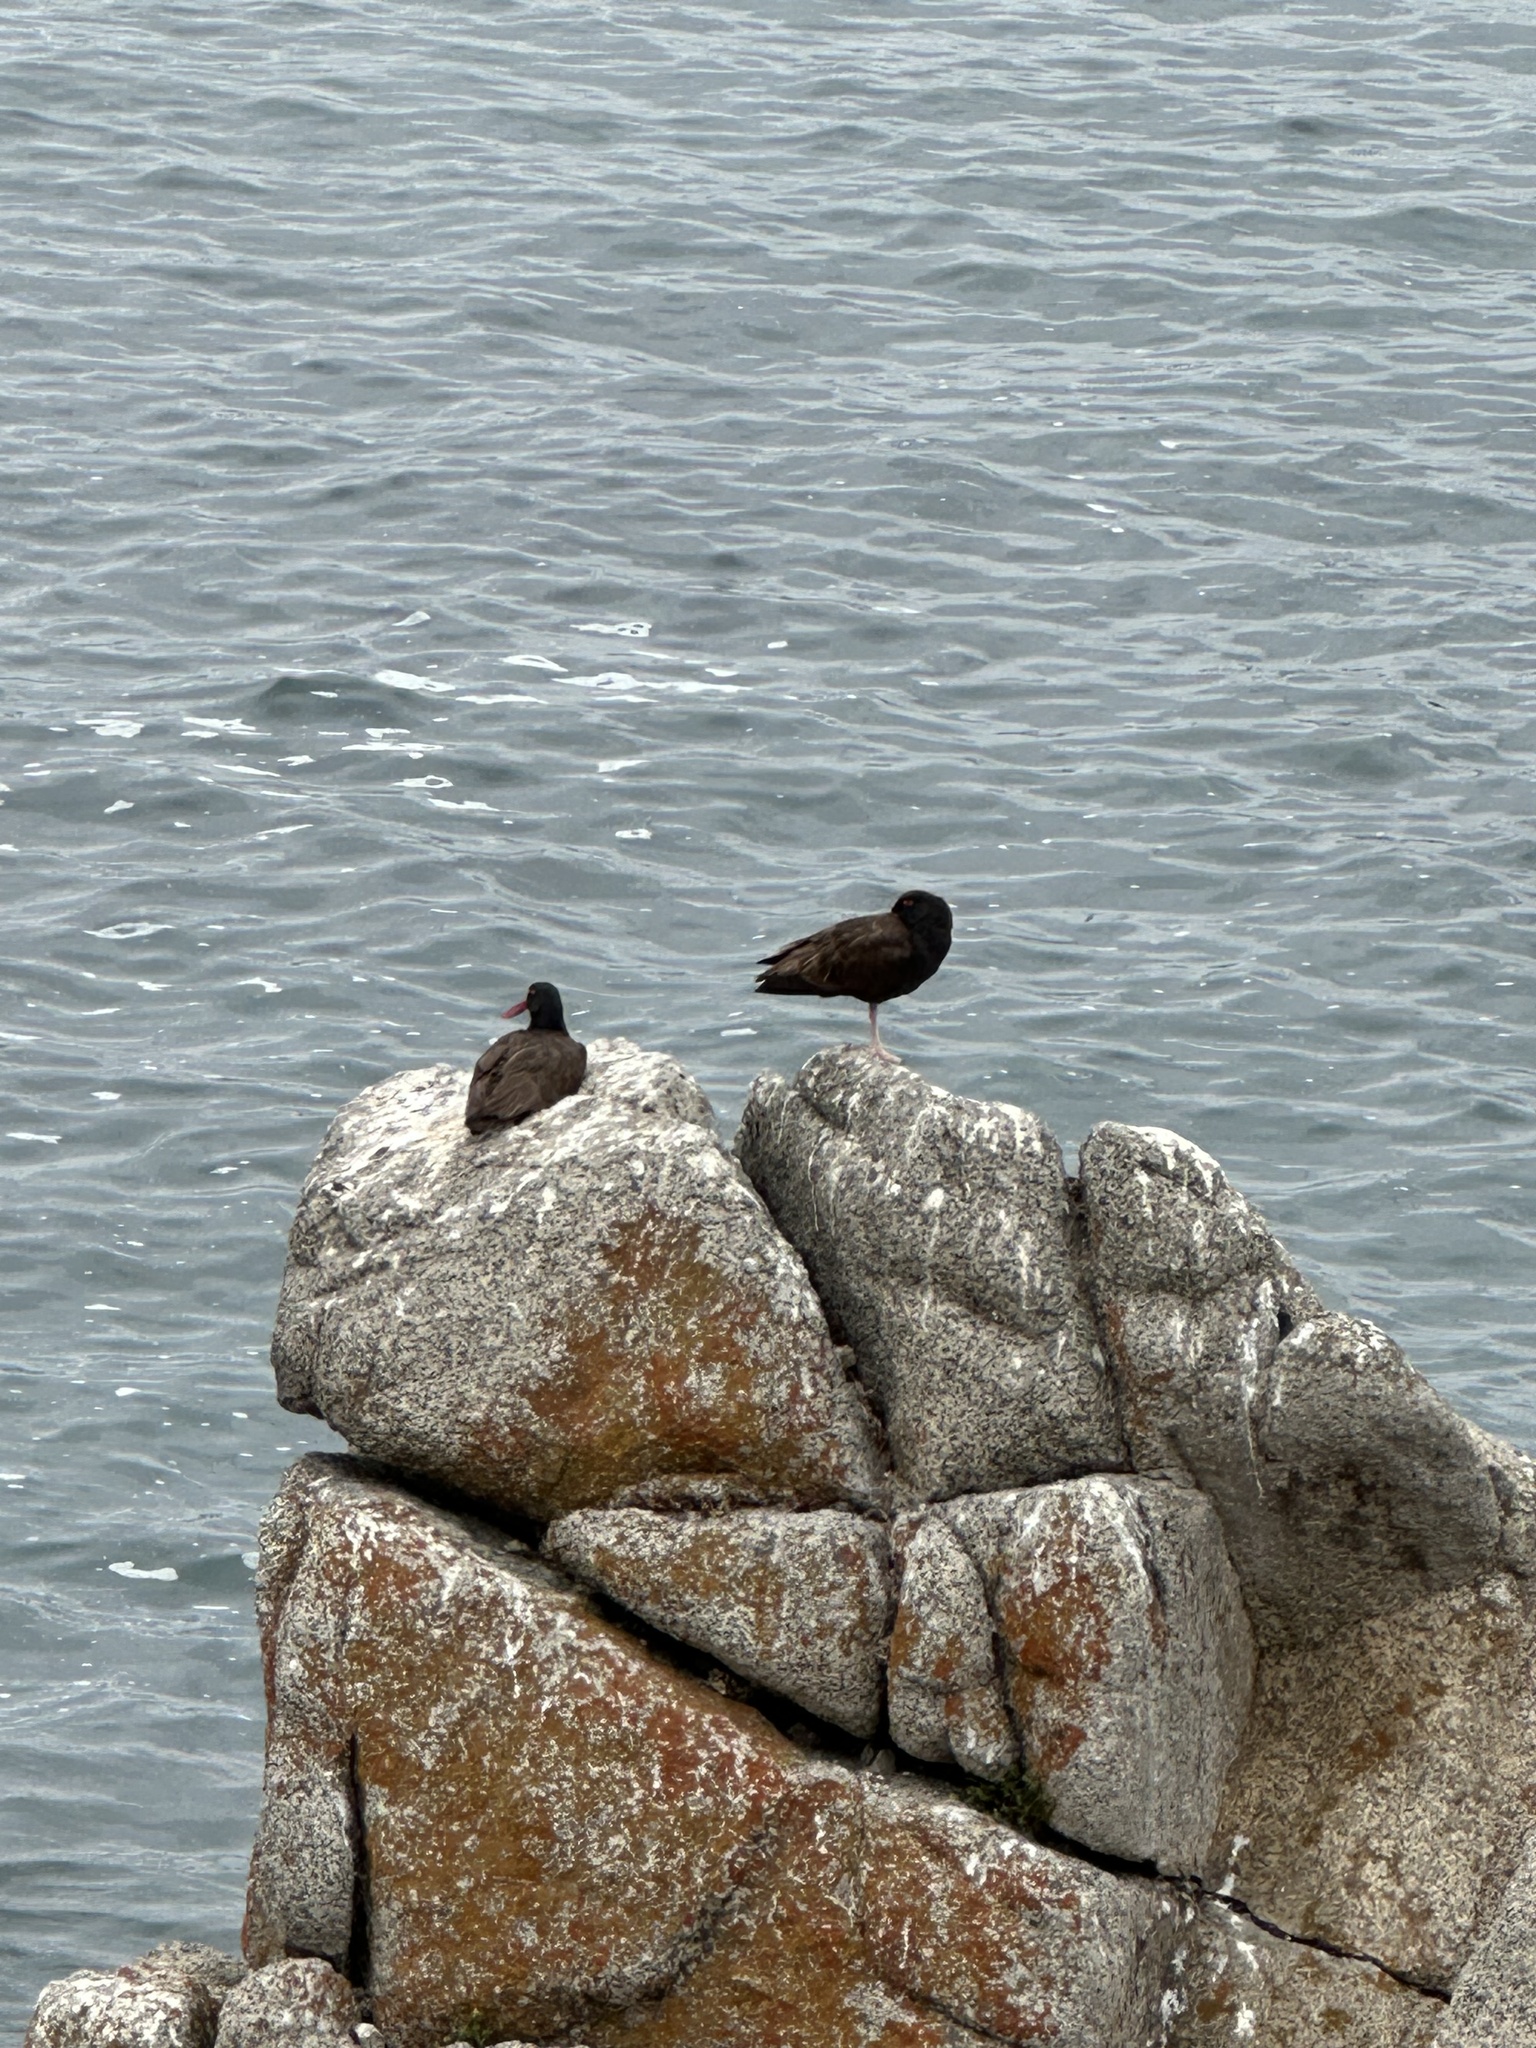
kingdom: Animalia
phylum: Chordata
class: Aves
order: Charadriiformes
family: Haematopodidae
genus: Haematopus
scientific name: Haematopus ater
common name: Blackish oystercatcher
